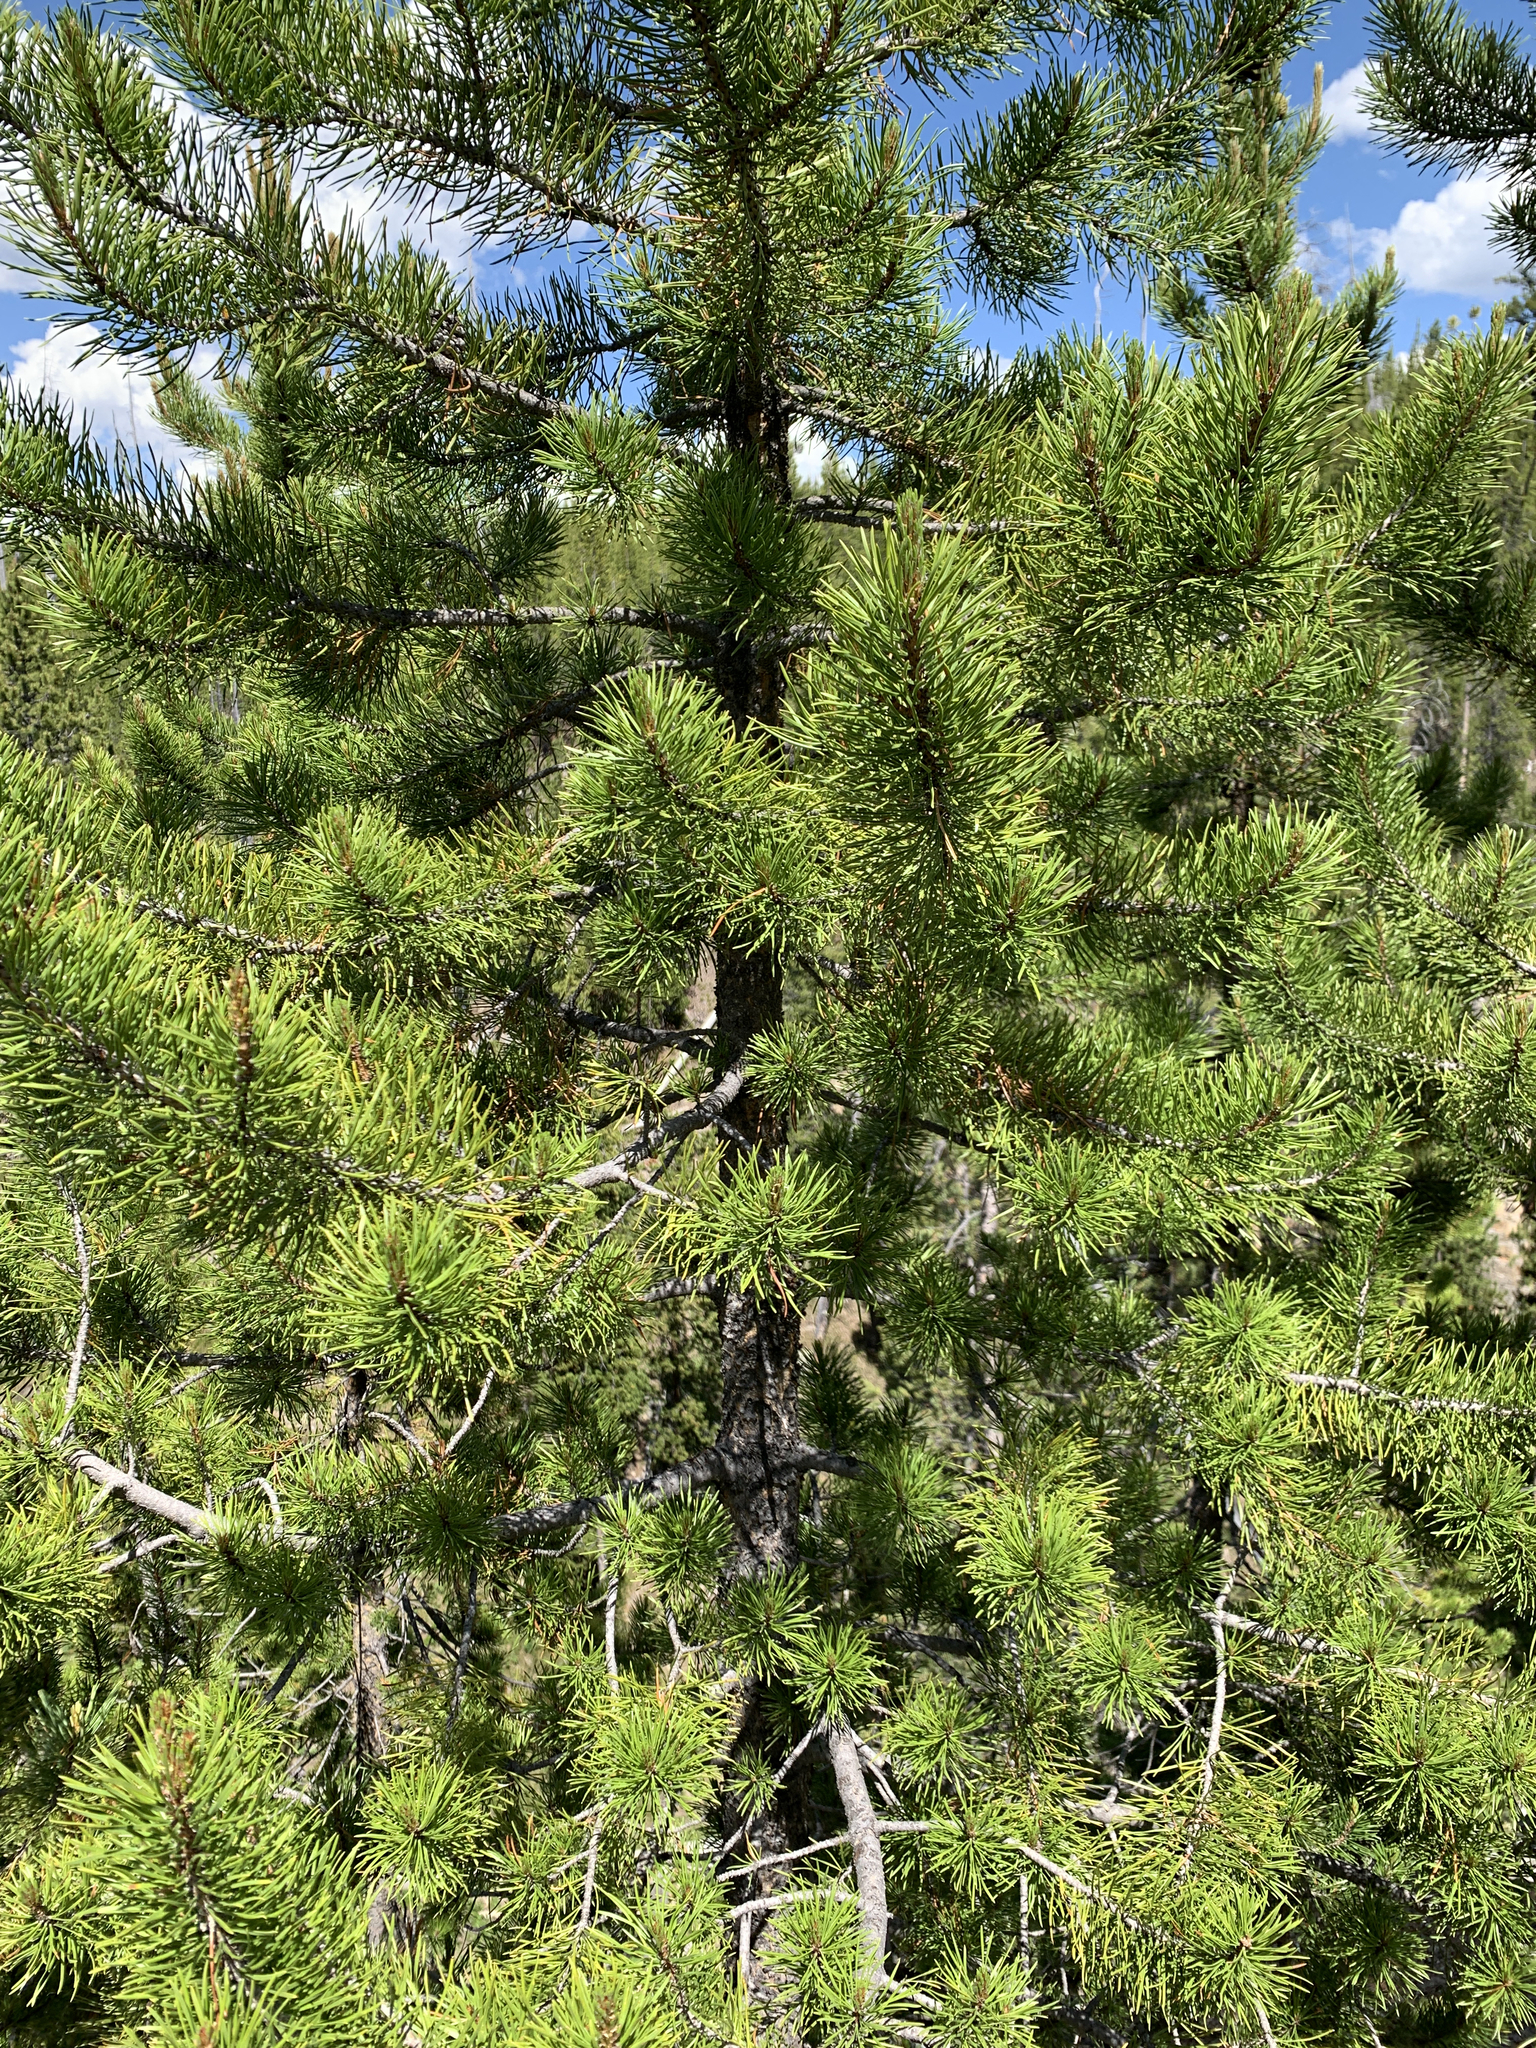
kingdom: Plantae
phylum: Tracheophyta
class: Pinopsida
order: Pinales
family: Pinaceae
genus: Pinus
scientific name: Pinus contorta
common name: Lodgepole pine
